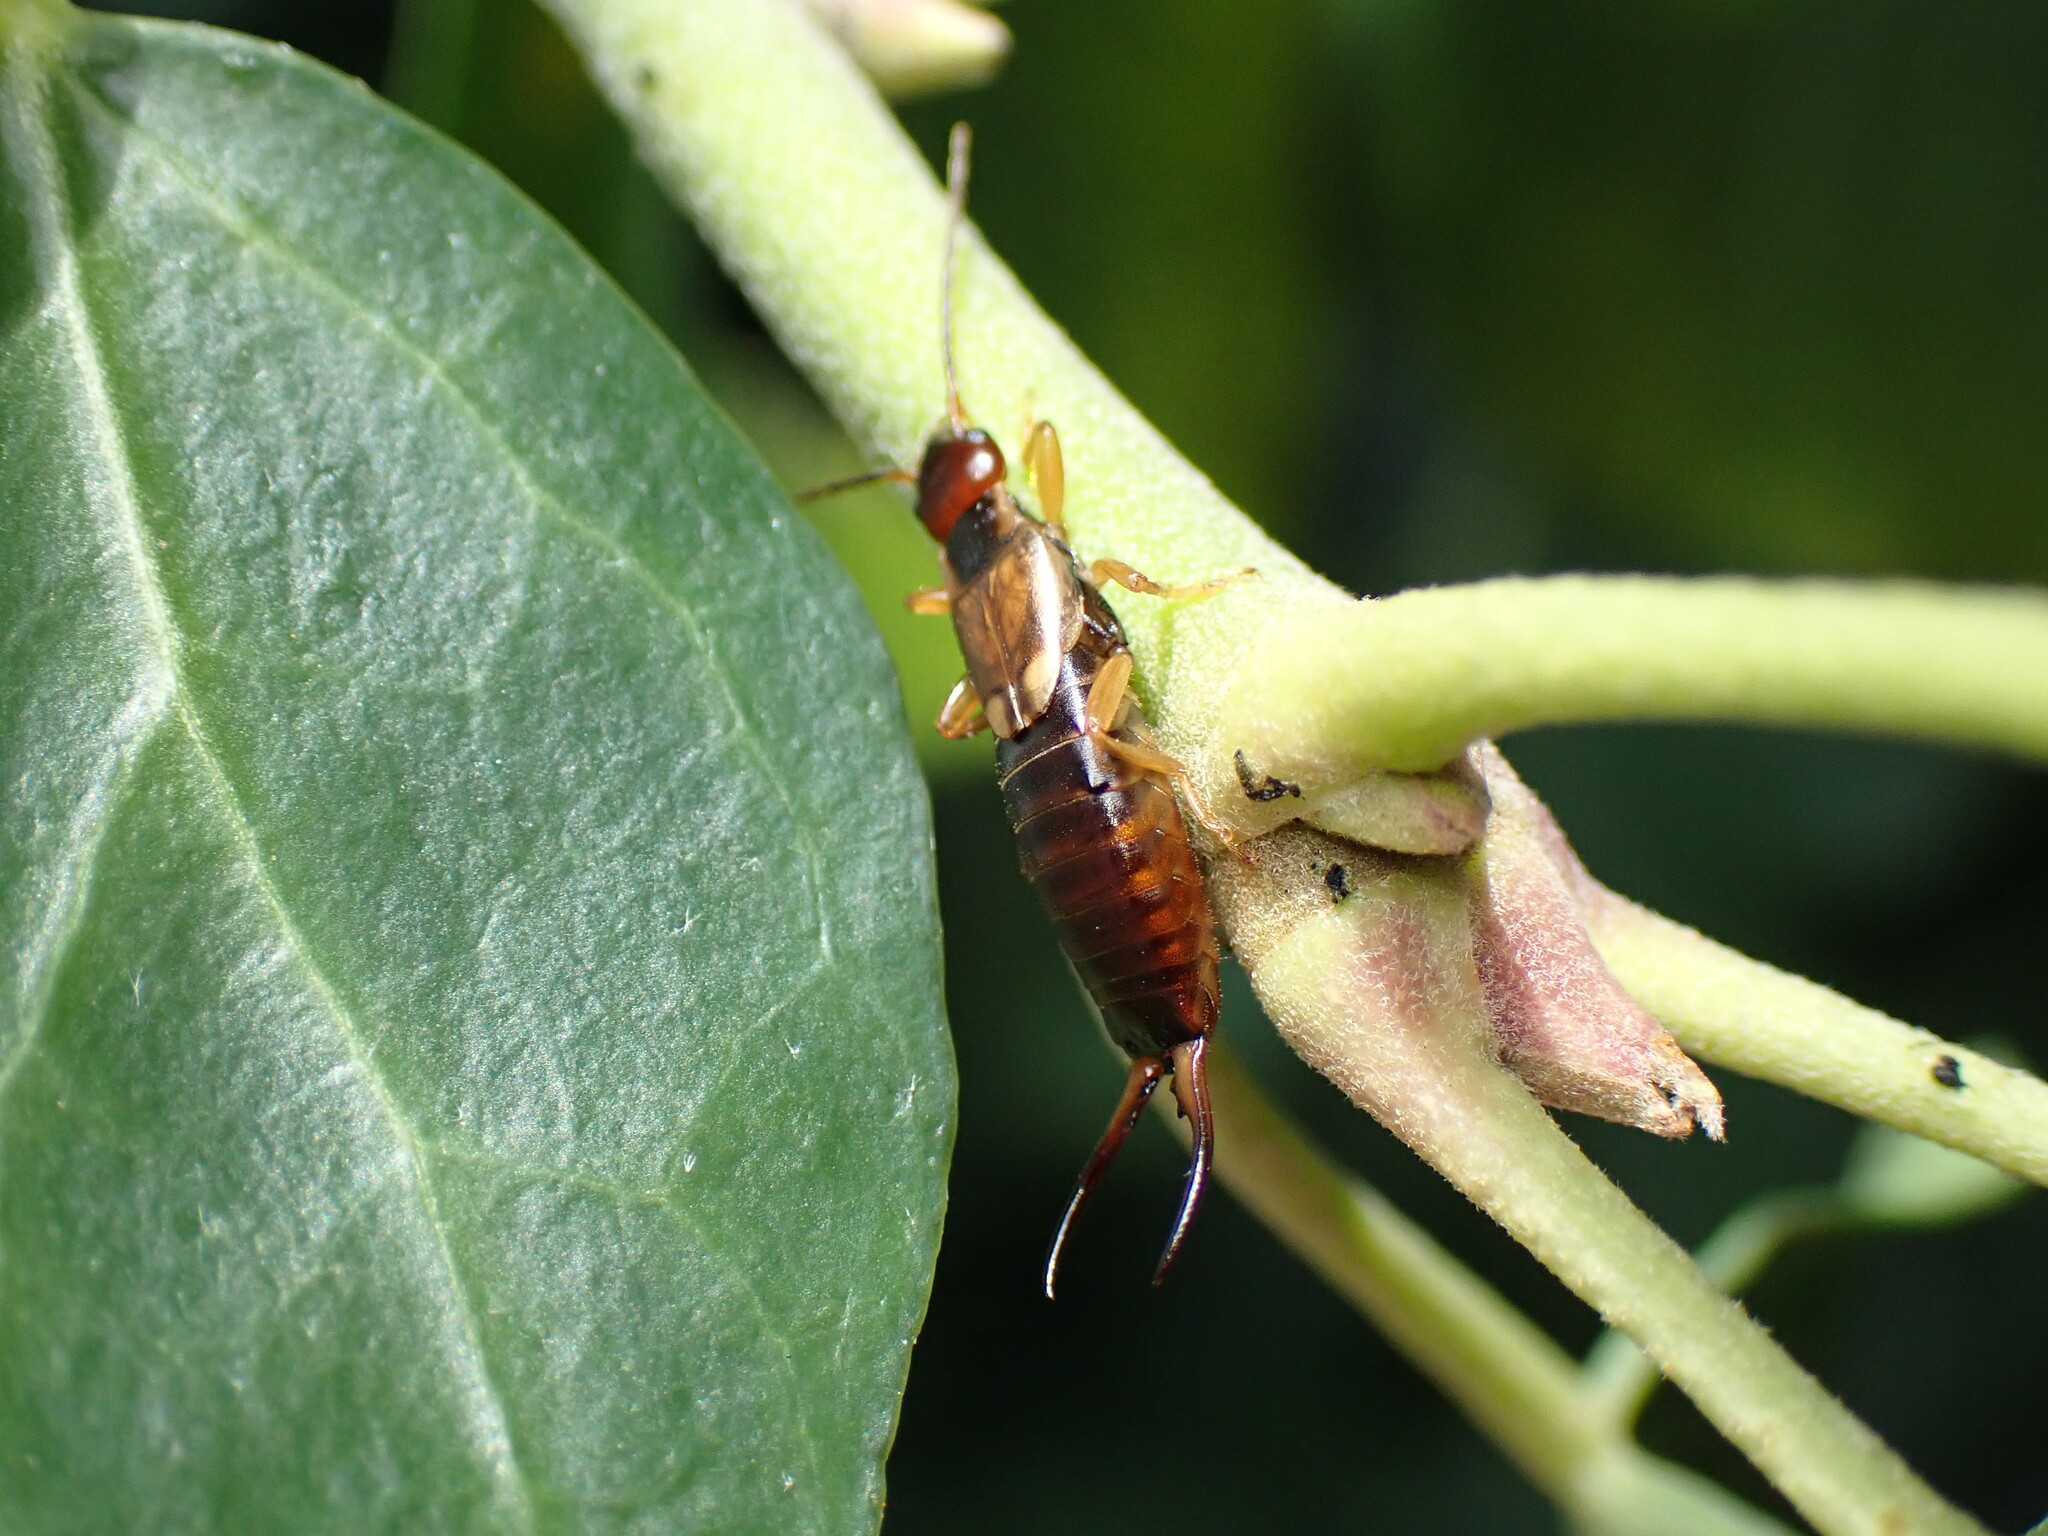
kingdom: Animalia
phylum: Arthropoda
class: Insecta
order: Dermaptera
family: Forficulidae
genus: Forficula
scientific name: Forficula
